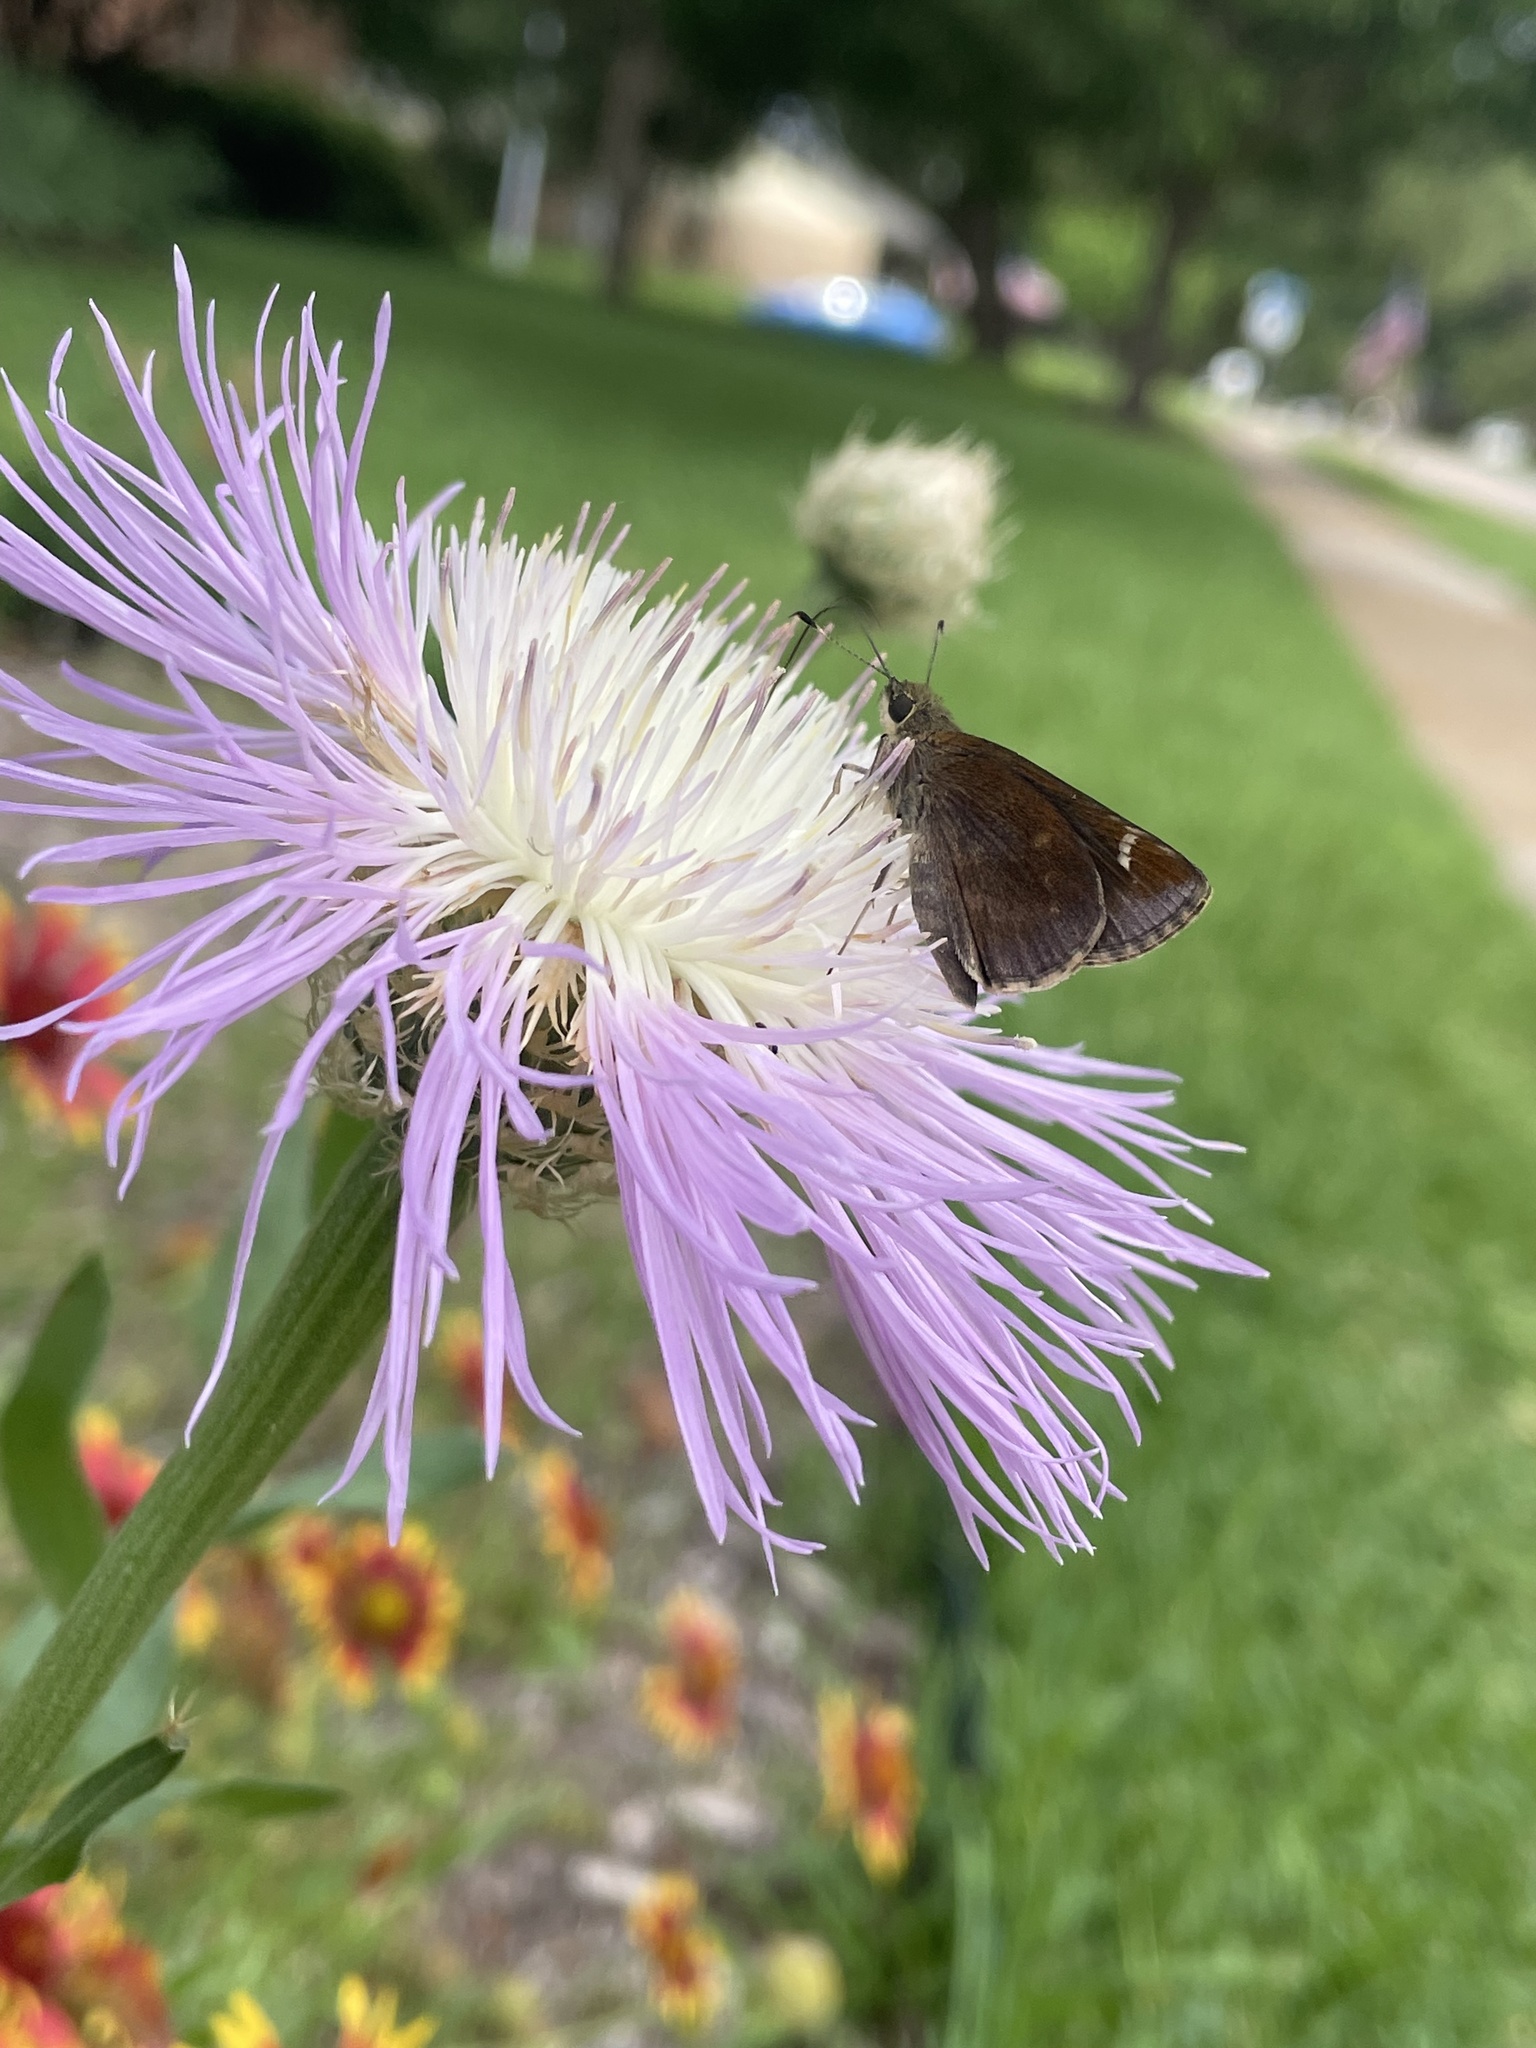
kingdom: Animalia
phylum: Arthropoda
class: Insecta
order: Lepidoptera
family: Hesperiidae
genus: Lerema
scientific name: Lerema accius
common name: Clouded skipper
